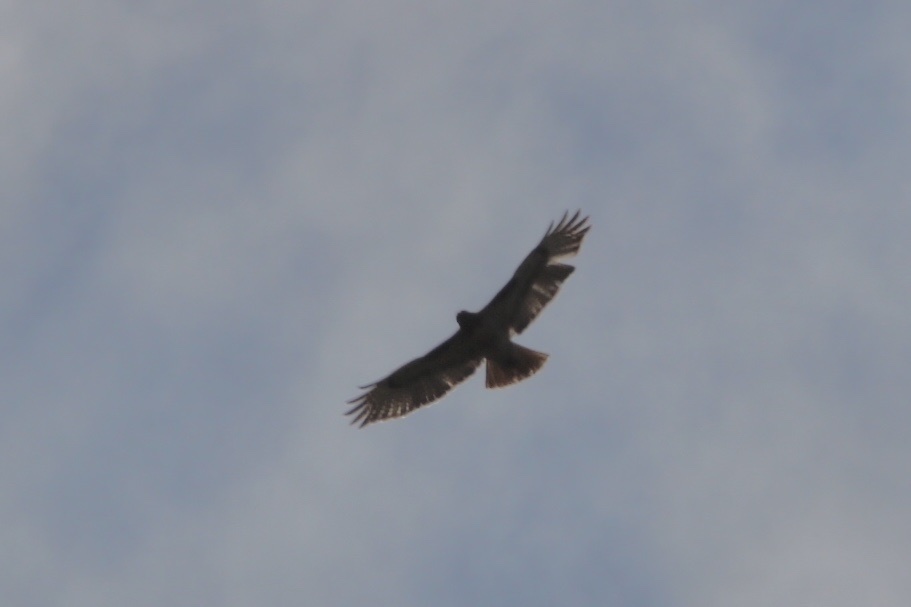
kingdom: Animalia
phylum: Chordata
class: Aves
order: Accipitriformes
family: Accipitridae
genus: Buteo
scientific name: Buteo jamaicensis
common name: Red-tailed hawk
